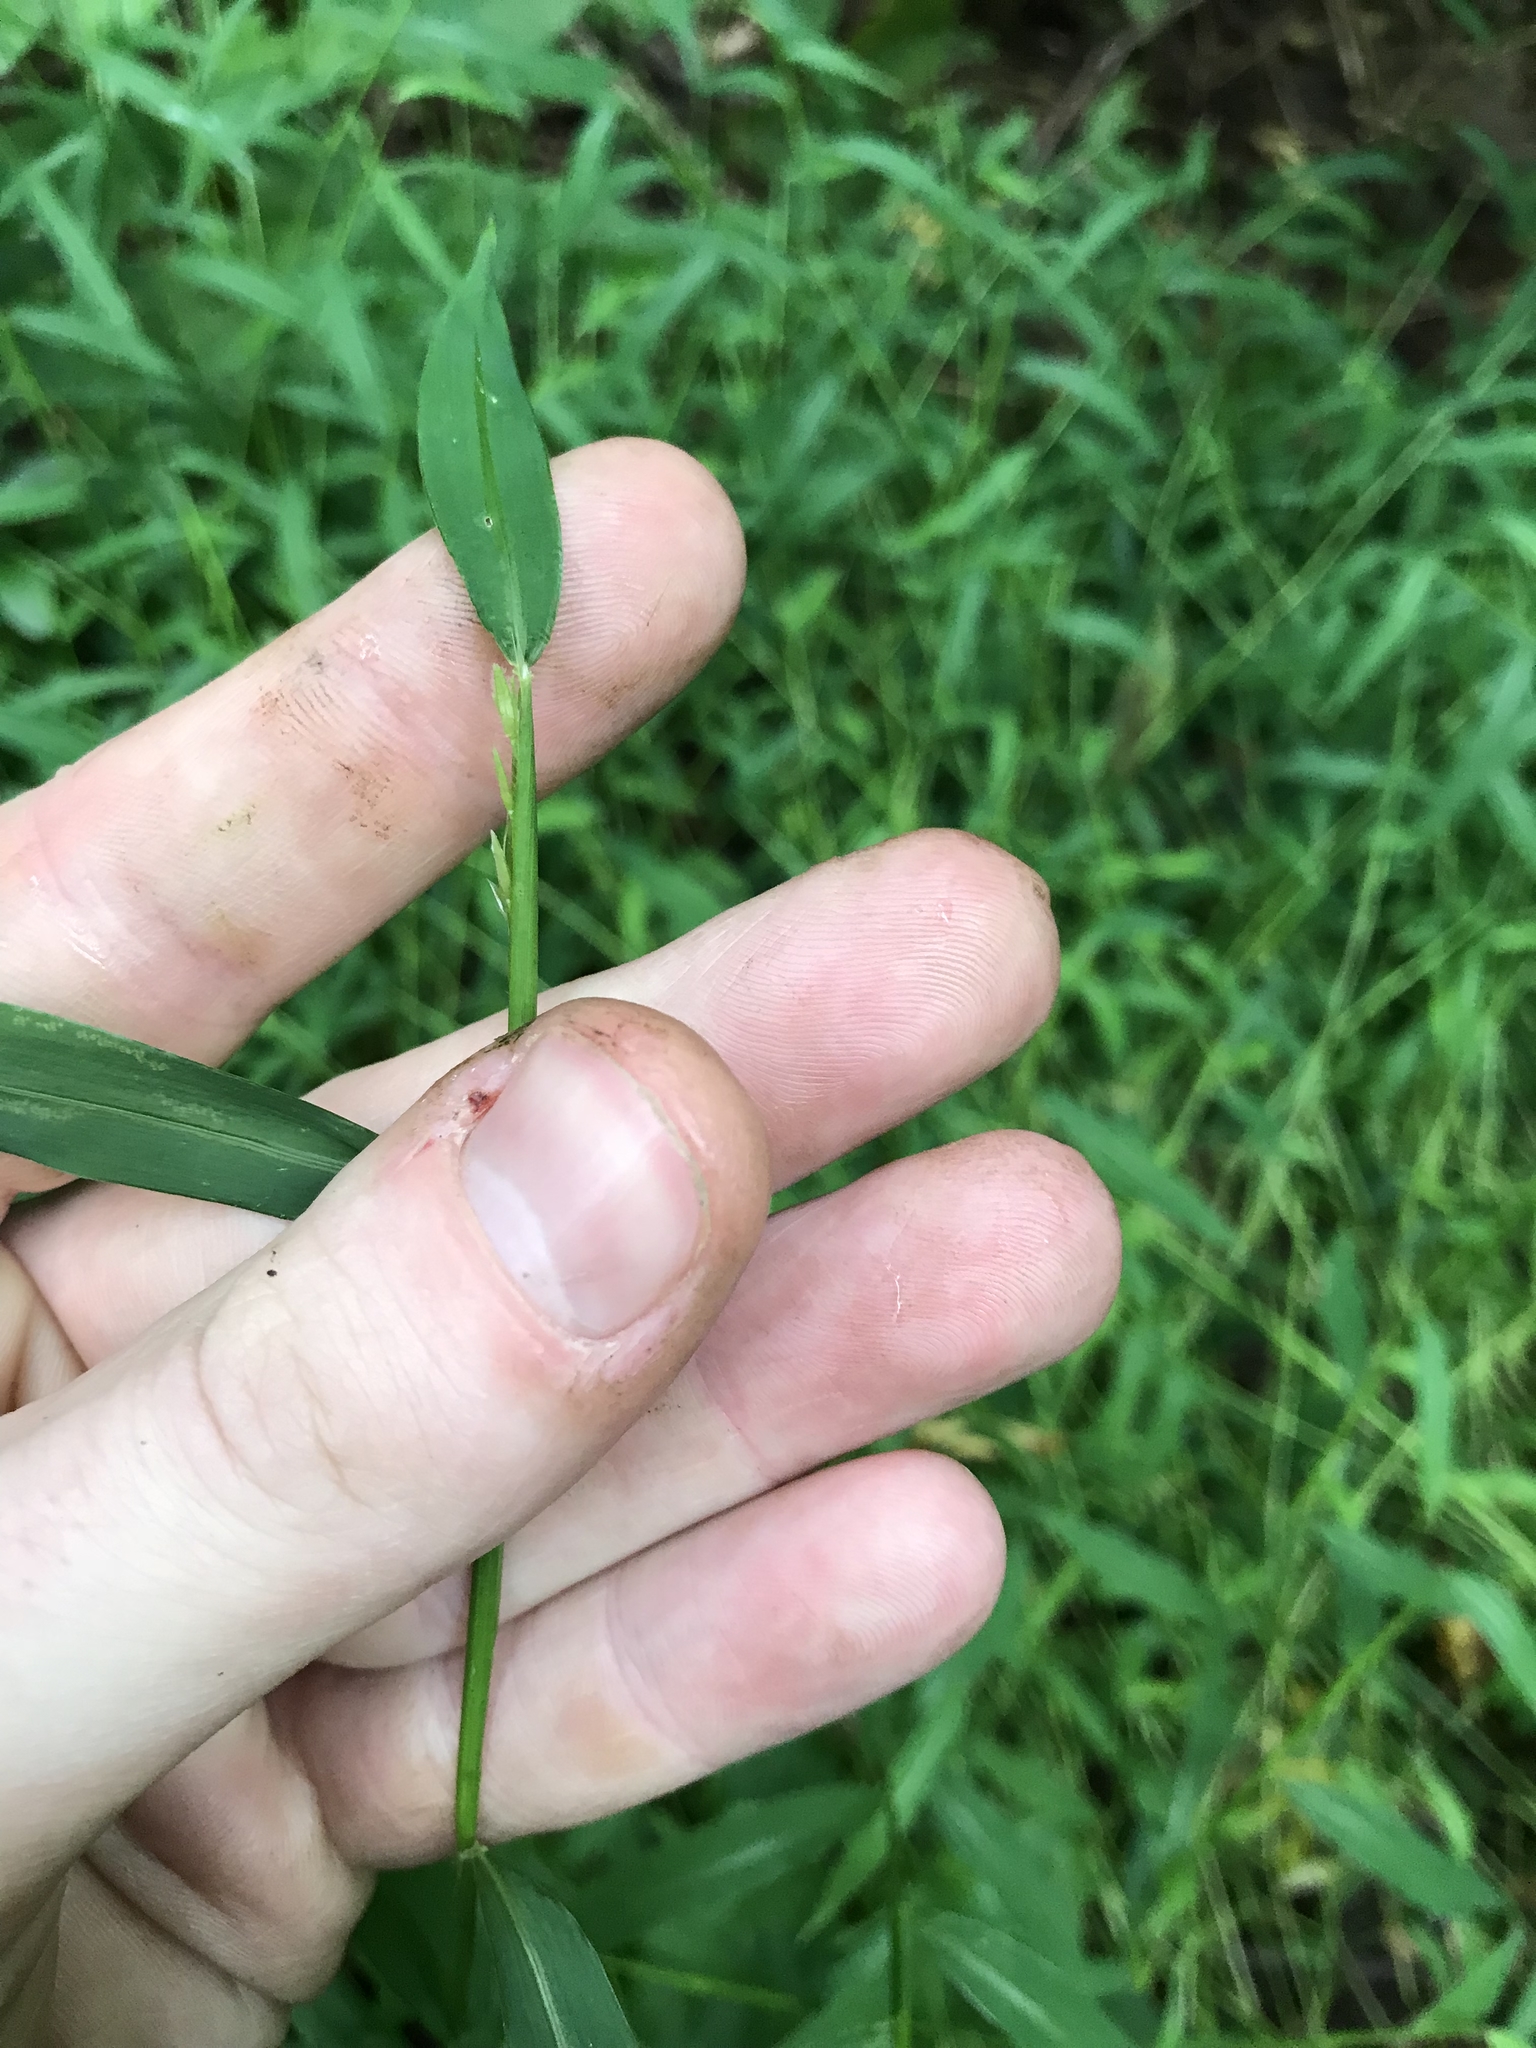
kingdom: Plantae
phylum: Tracheophyta
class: Liliopsida
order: Poales
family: Poaceae
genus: Microstegium
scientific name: Microstegium vimineum
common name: Japanese stiltgrass
